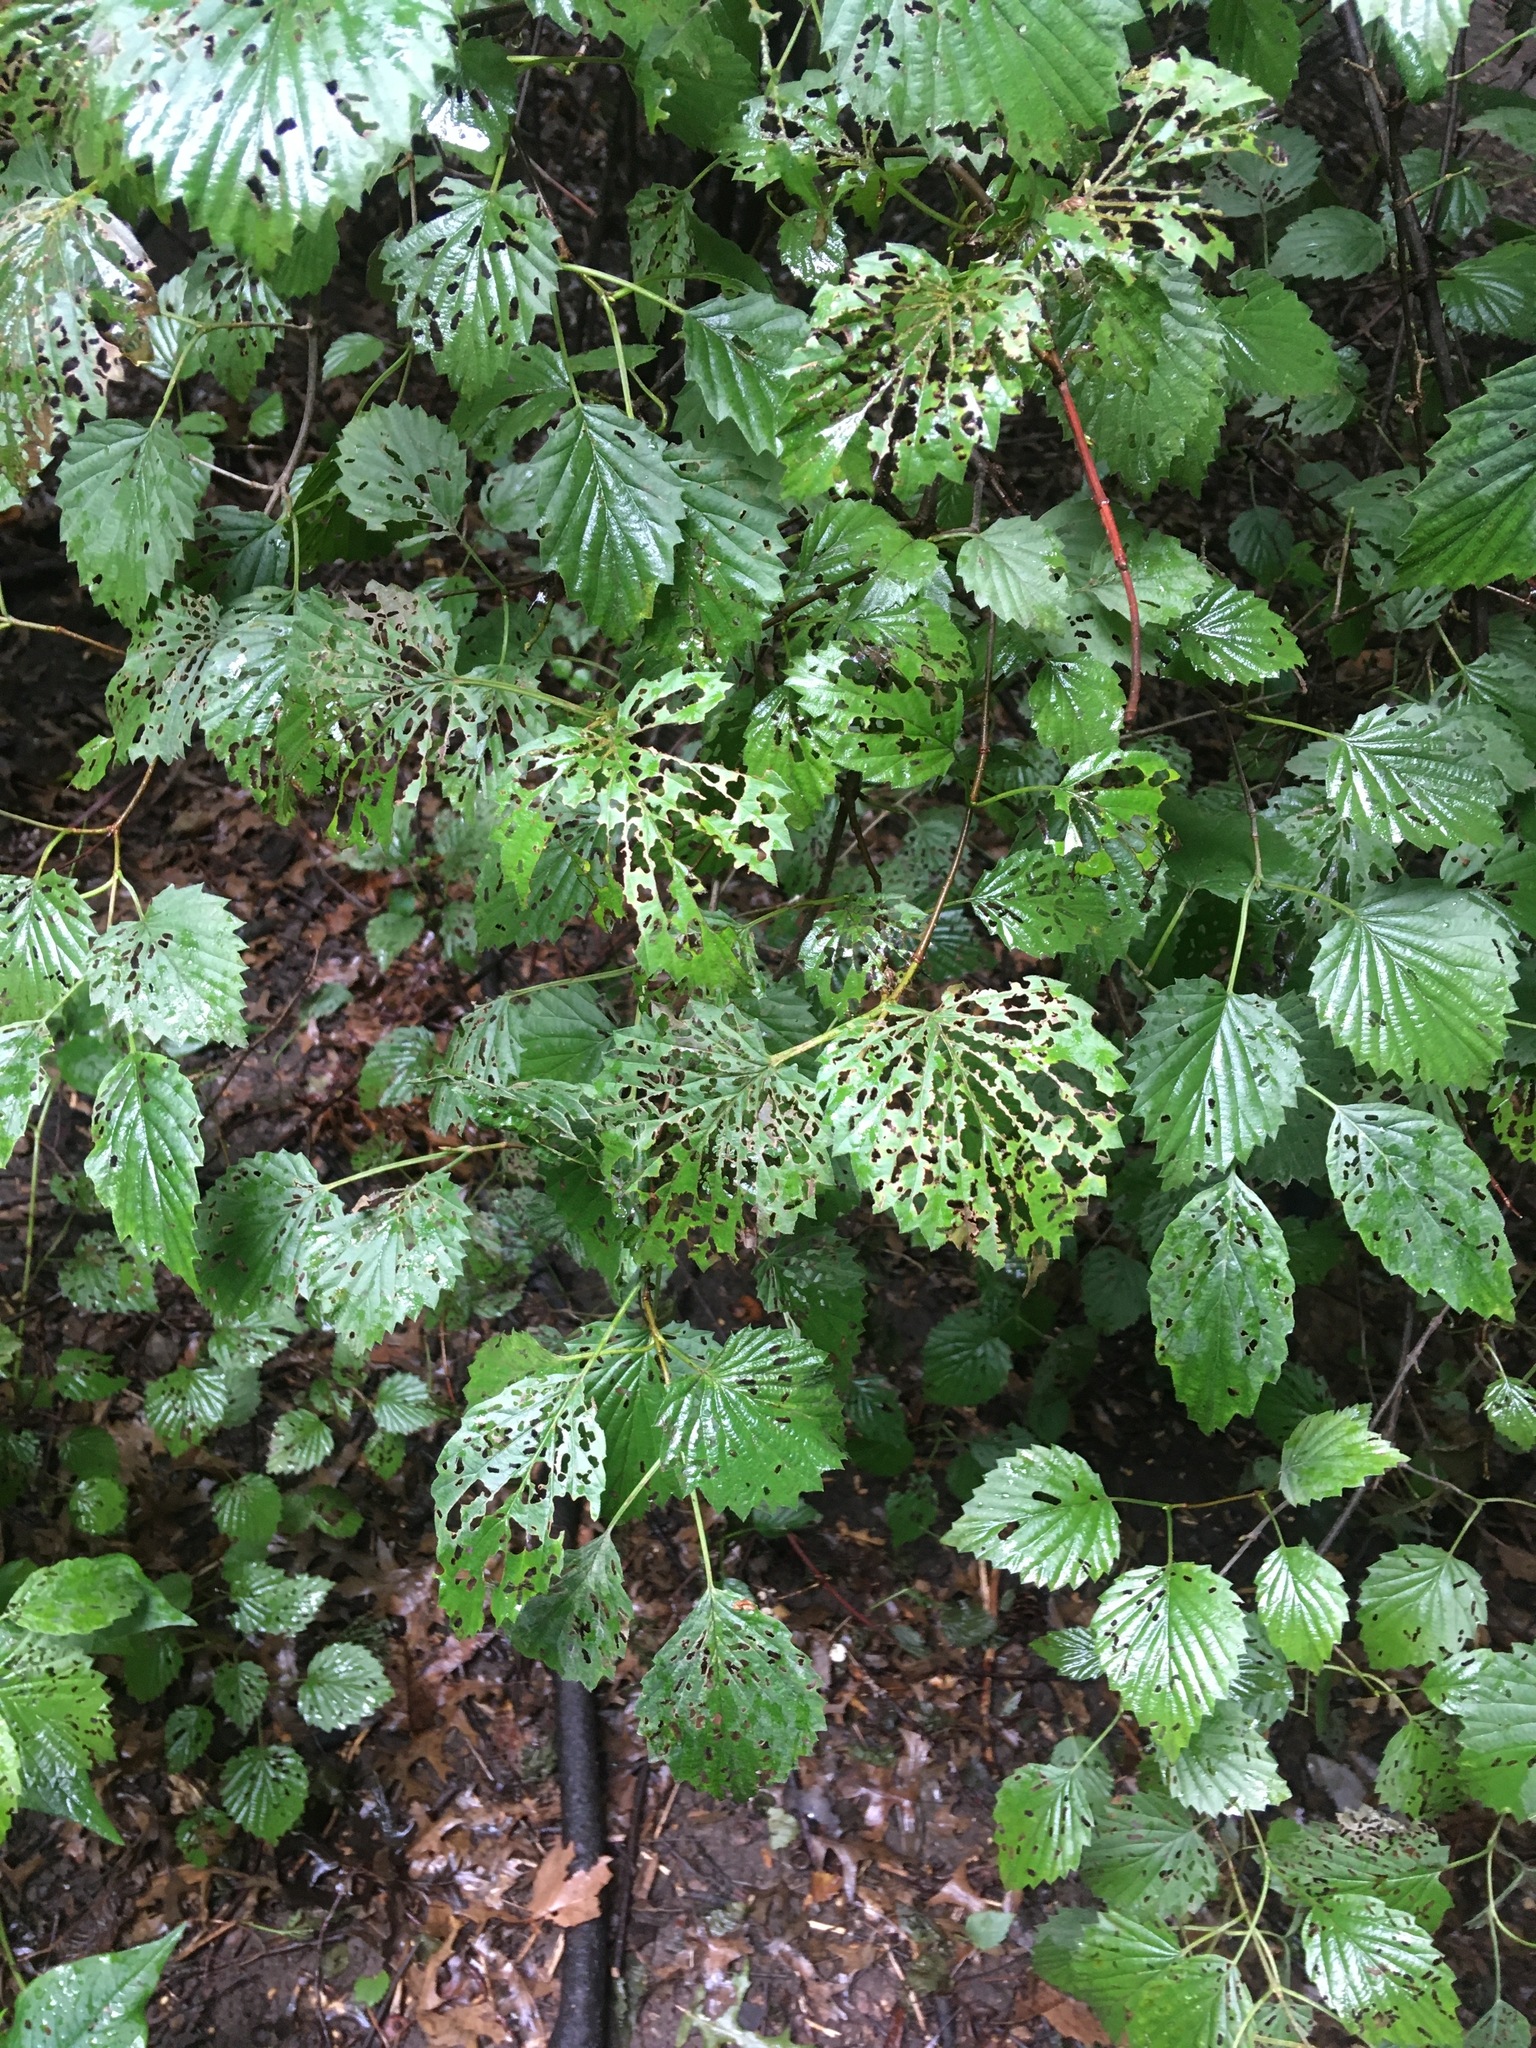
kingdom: Plantae
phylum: Tracheophyta
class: Magnoliopsida
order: Dipsacales
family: Viburnaceae
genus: Viburnum
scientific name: Viburnum dentatum
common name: Arrow-wood
